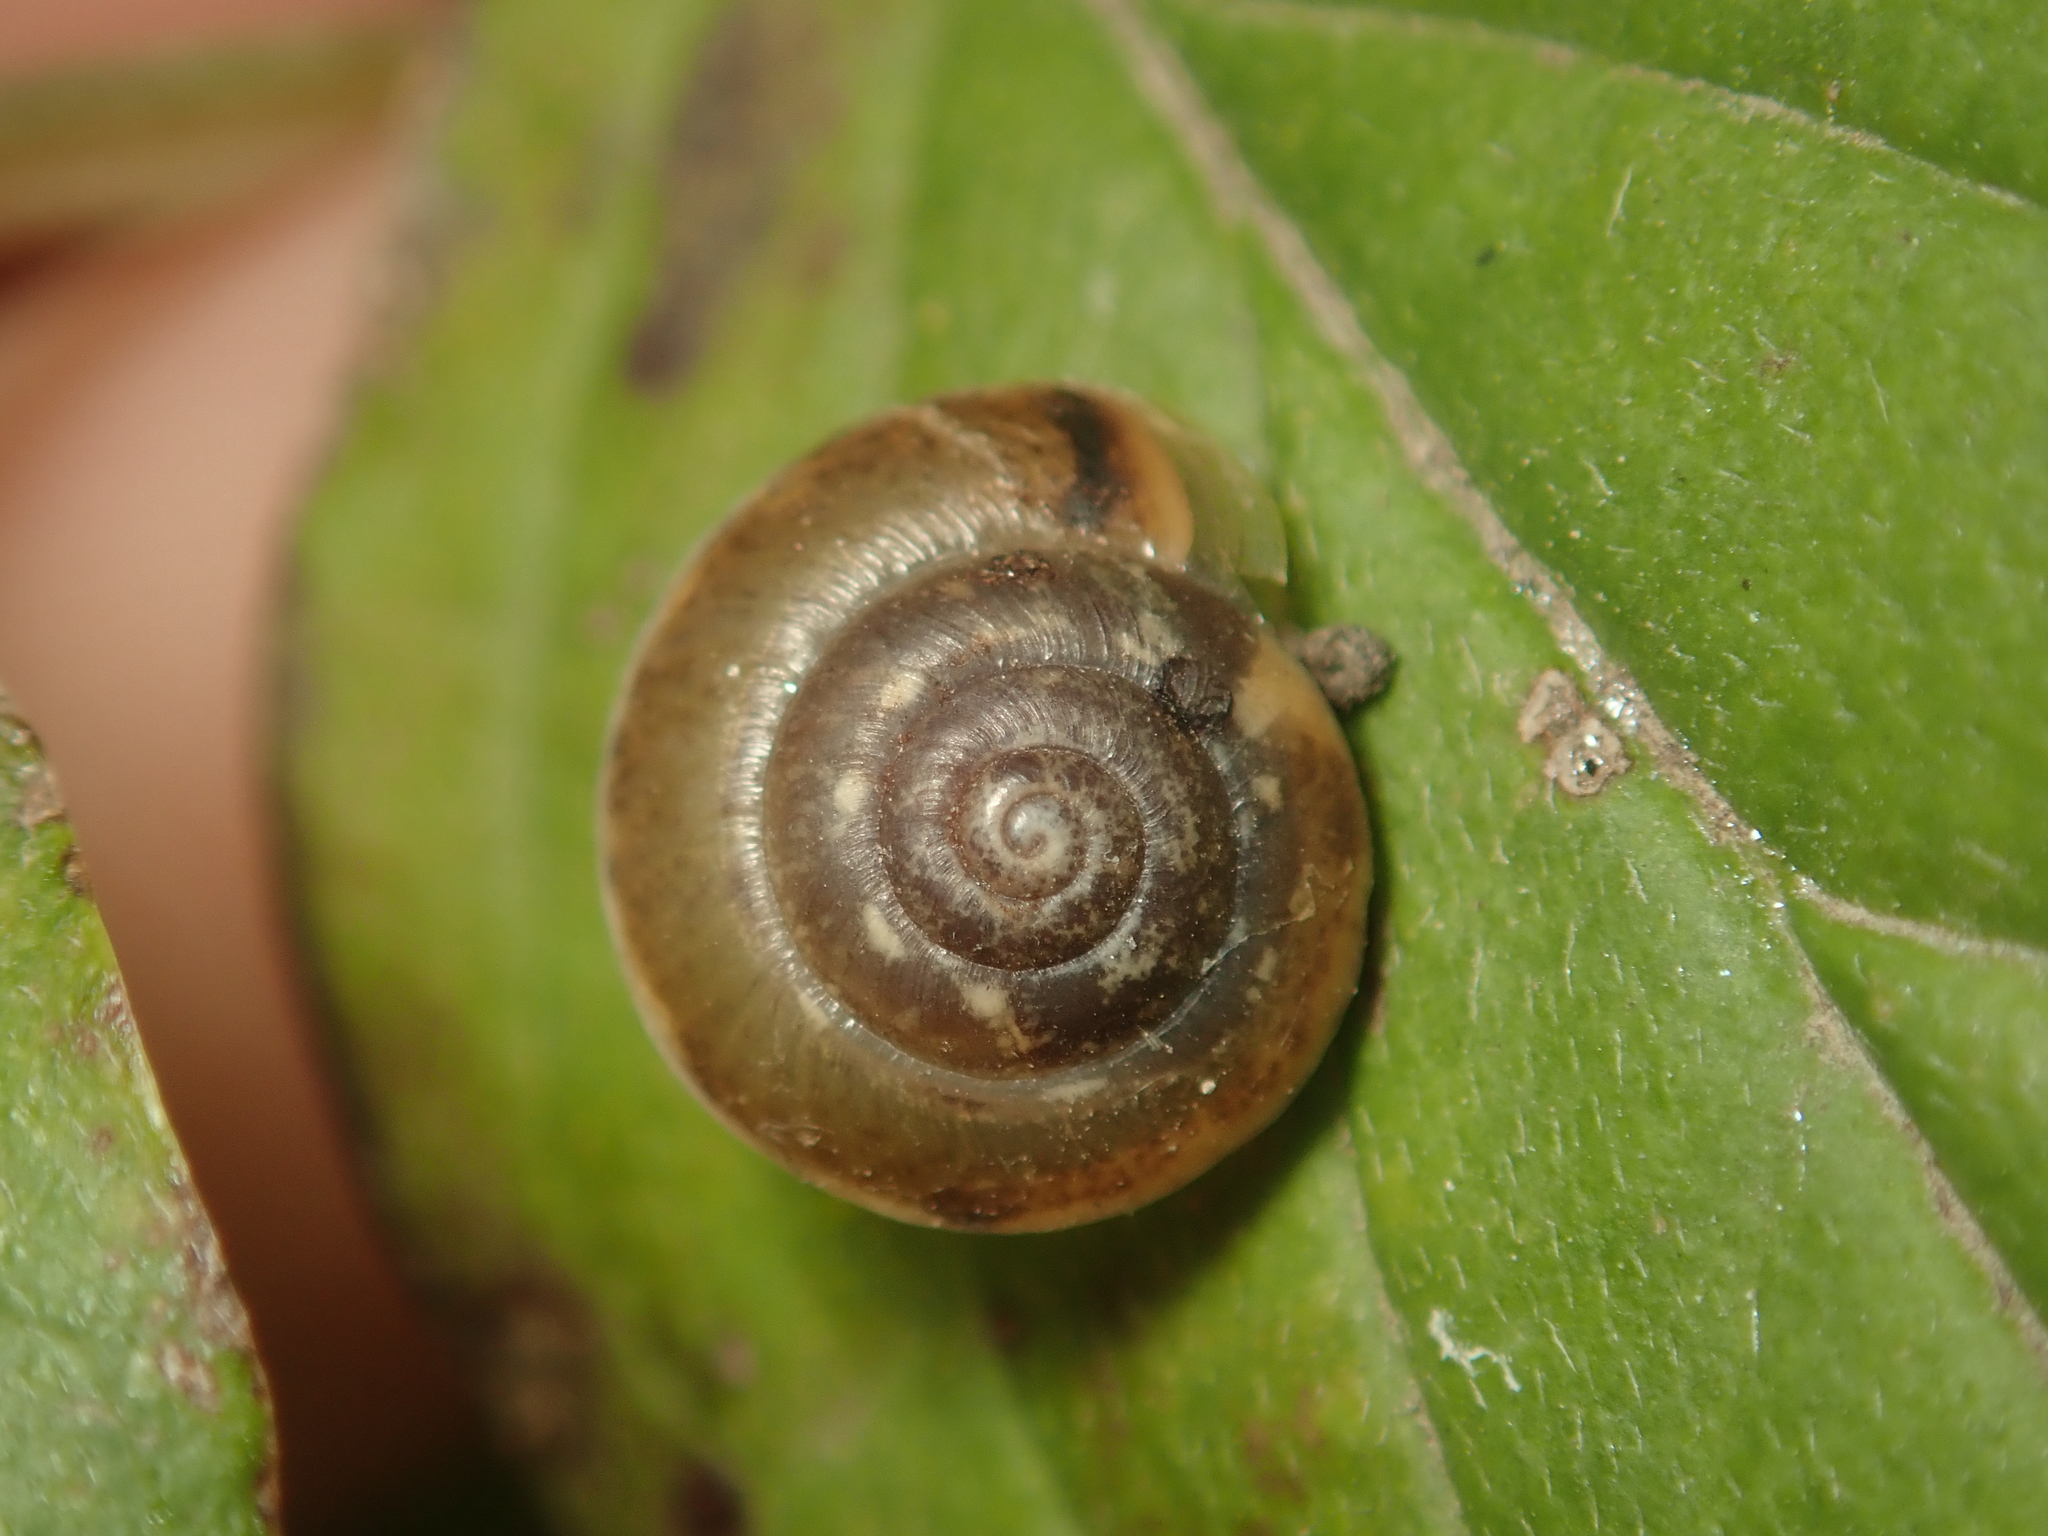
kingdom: Animalia
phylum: Mollusca
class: Gastropoda
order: Stylommatophora
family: Hygromiidae
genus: Hygromia
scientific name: Hygromia cinctella
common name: Girdled snail
